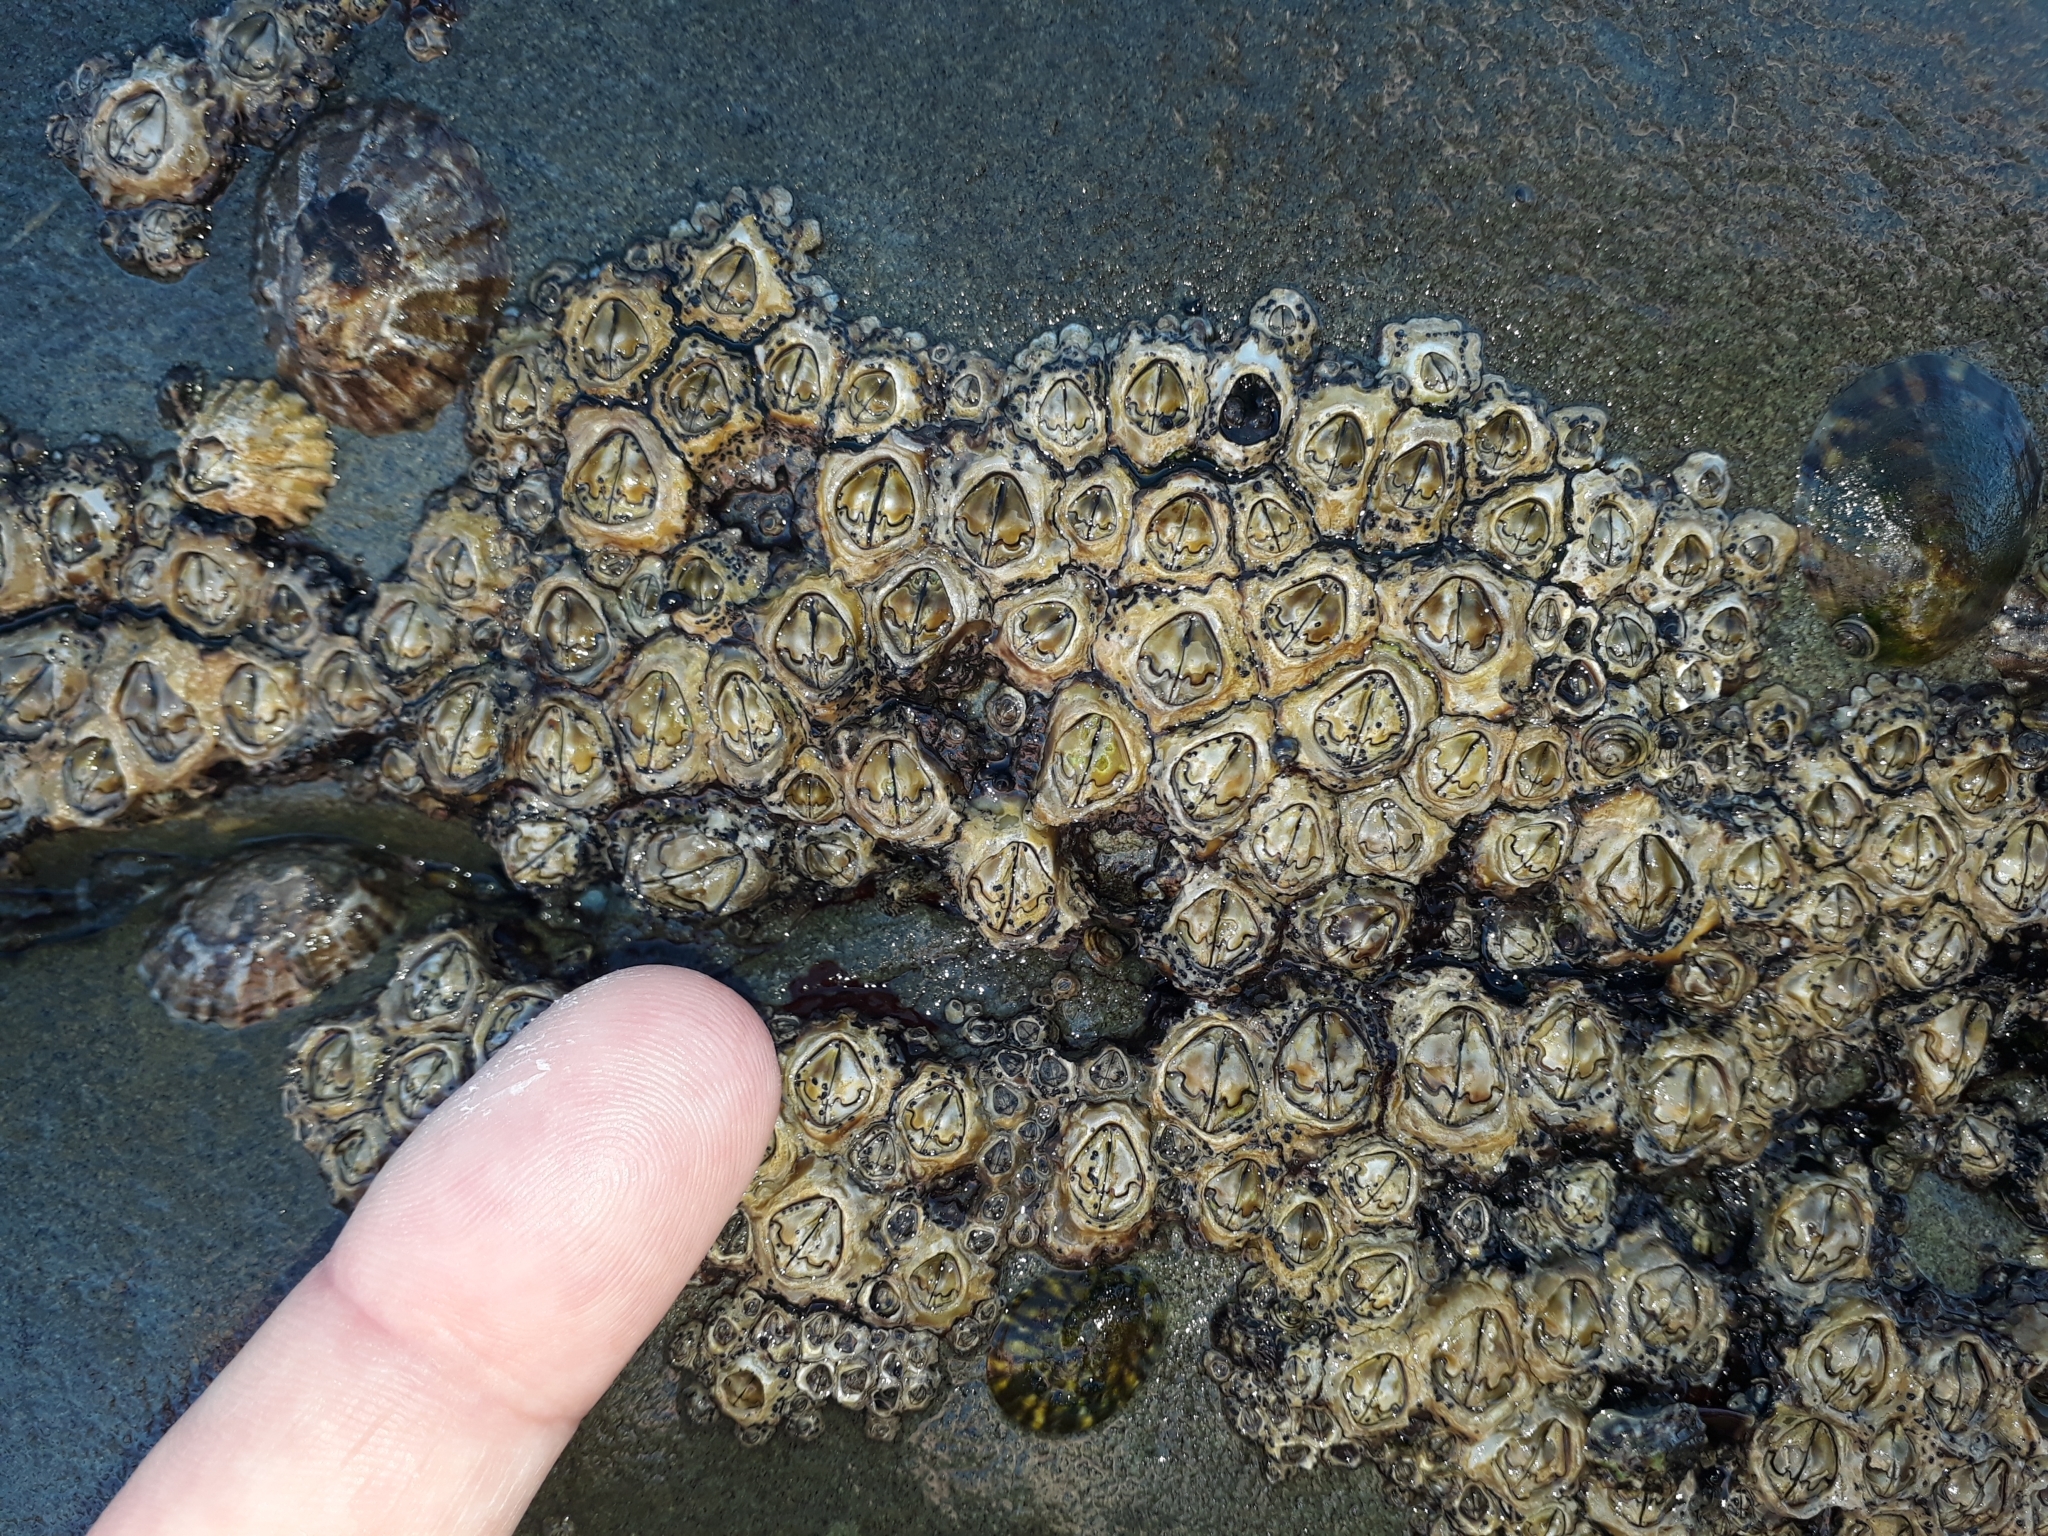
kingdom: Animalia
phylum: Arthropoda
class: Maxillopoda
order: Sessilia
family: Chthamalidae
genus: Chamaesipho
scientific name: Chamaesipho brunnea
